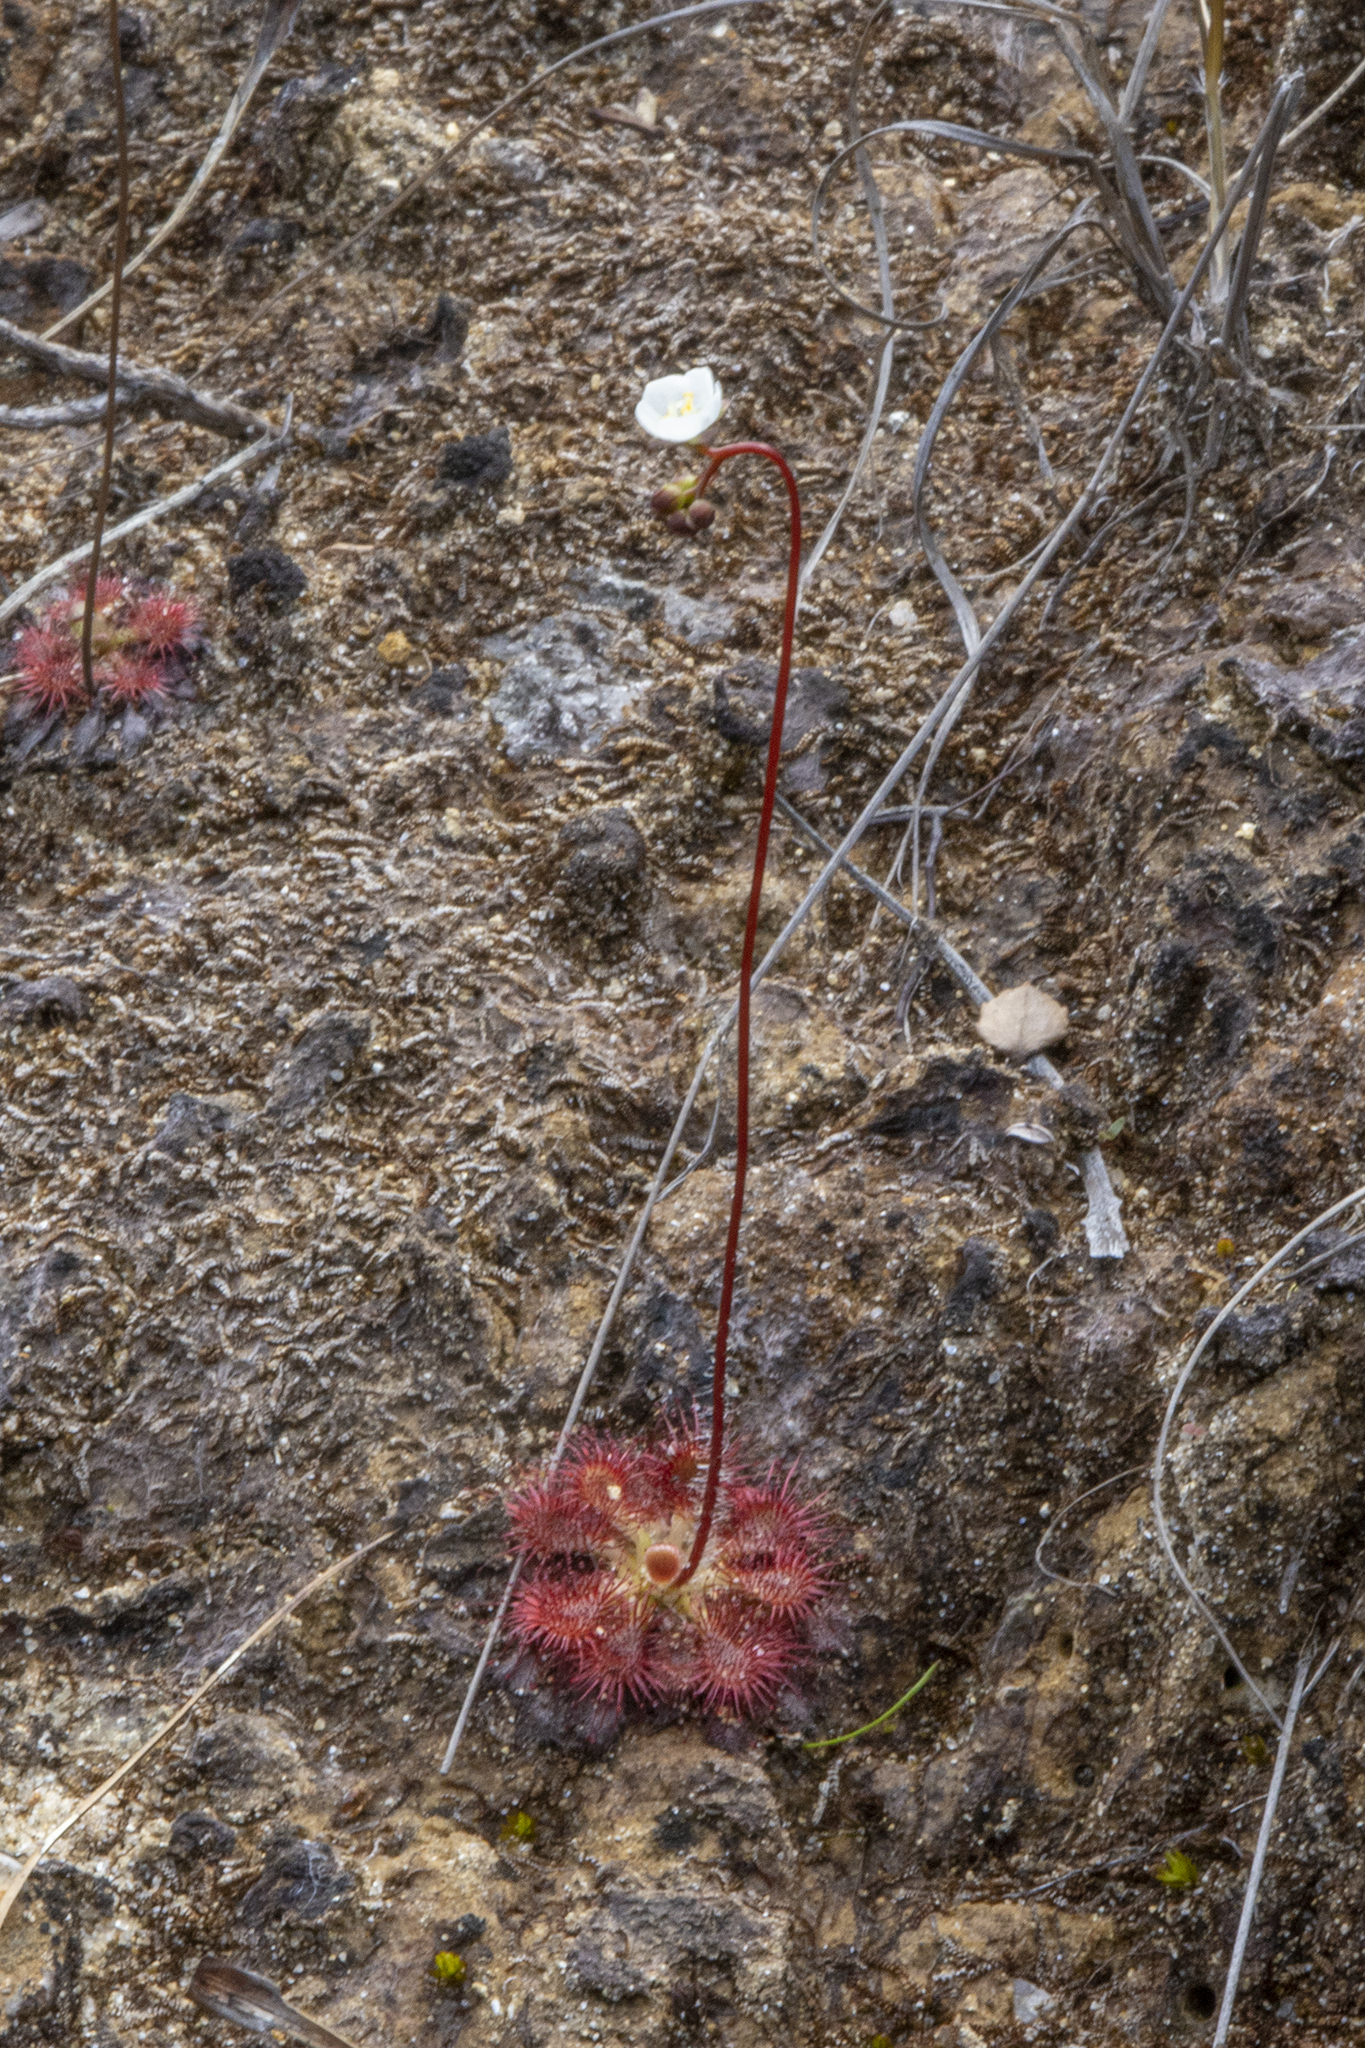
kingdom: Plantae
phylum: Tracheophyta
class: Magnoliopsida
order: Caryophyllales
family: Droseraceae
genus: Drosera
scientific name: Drosera spatulata
